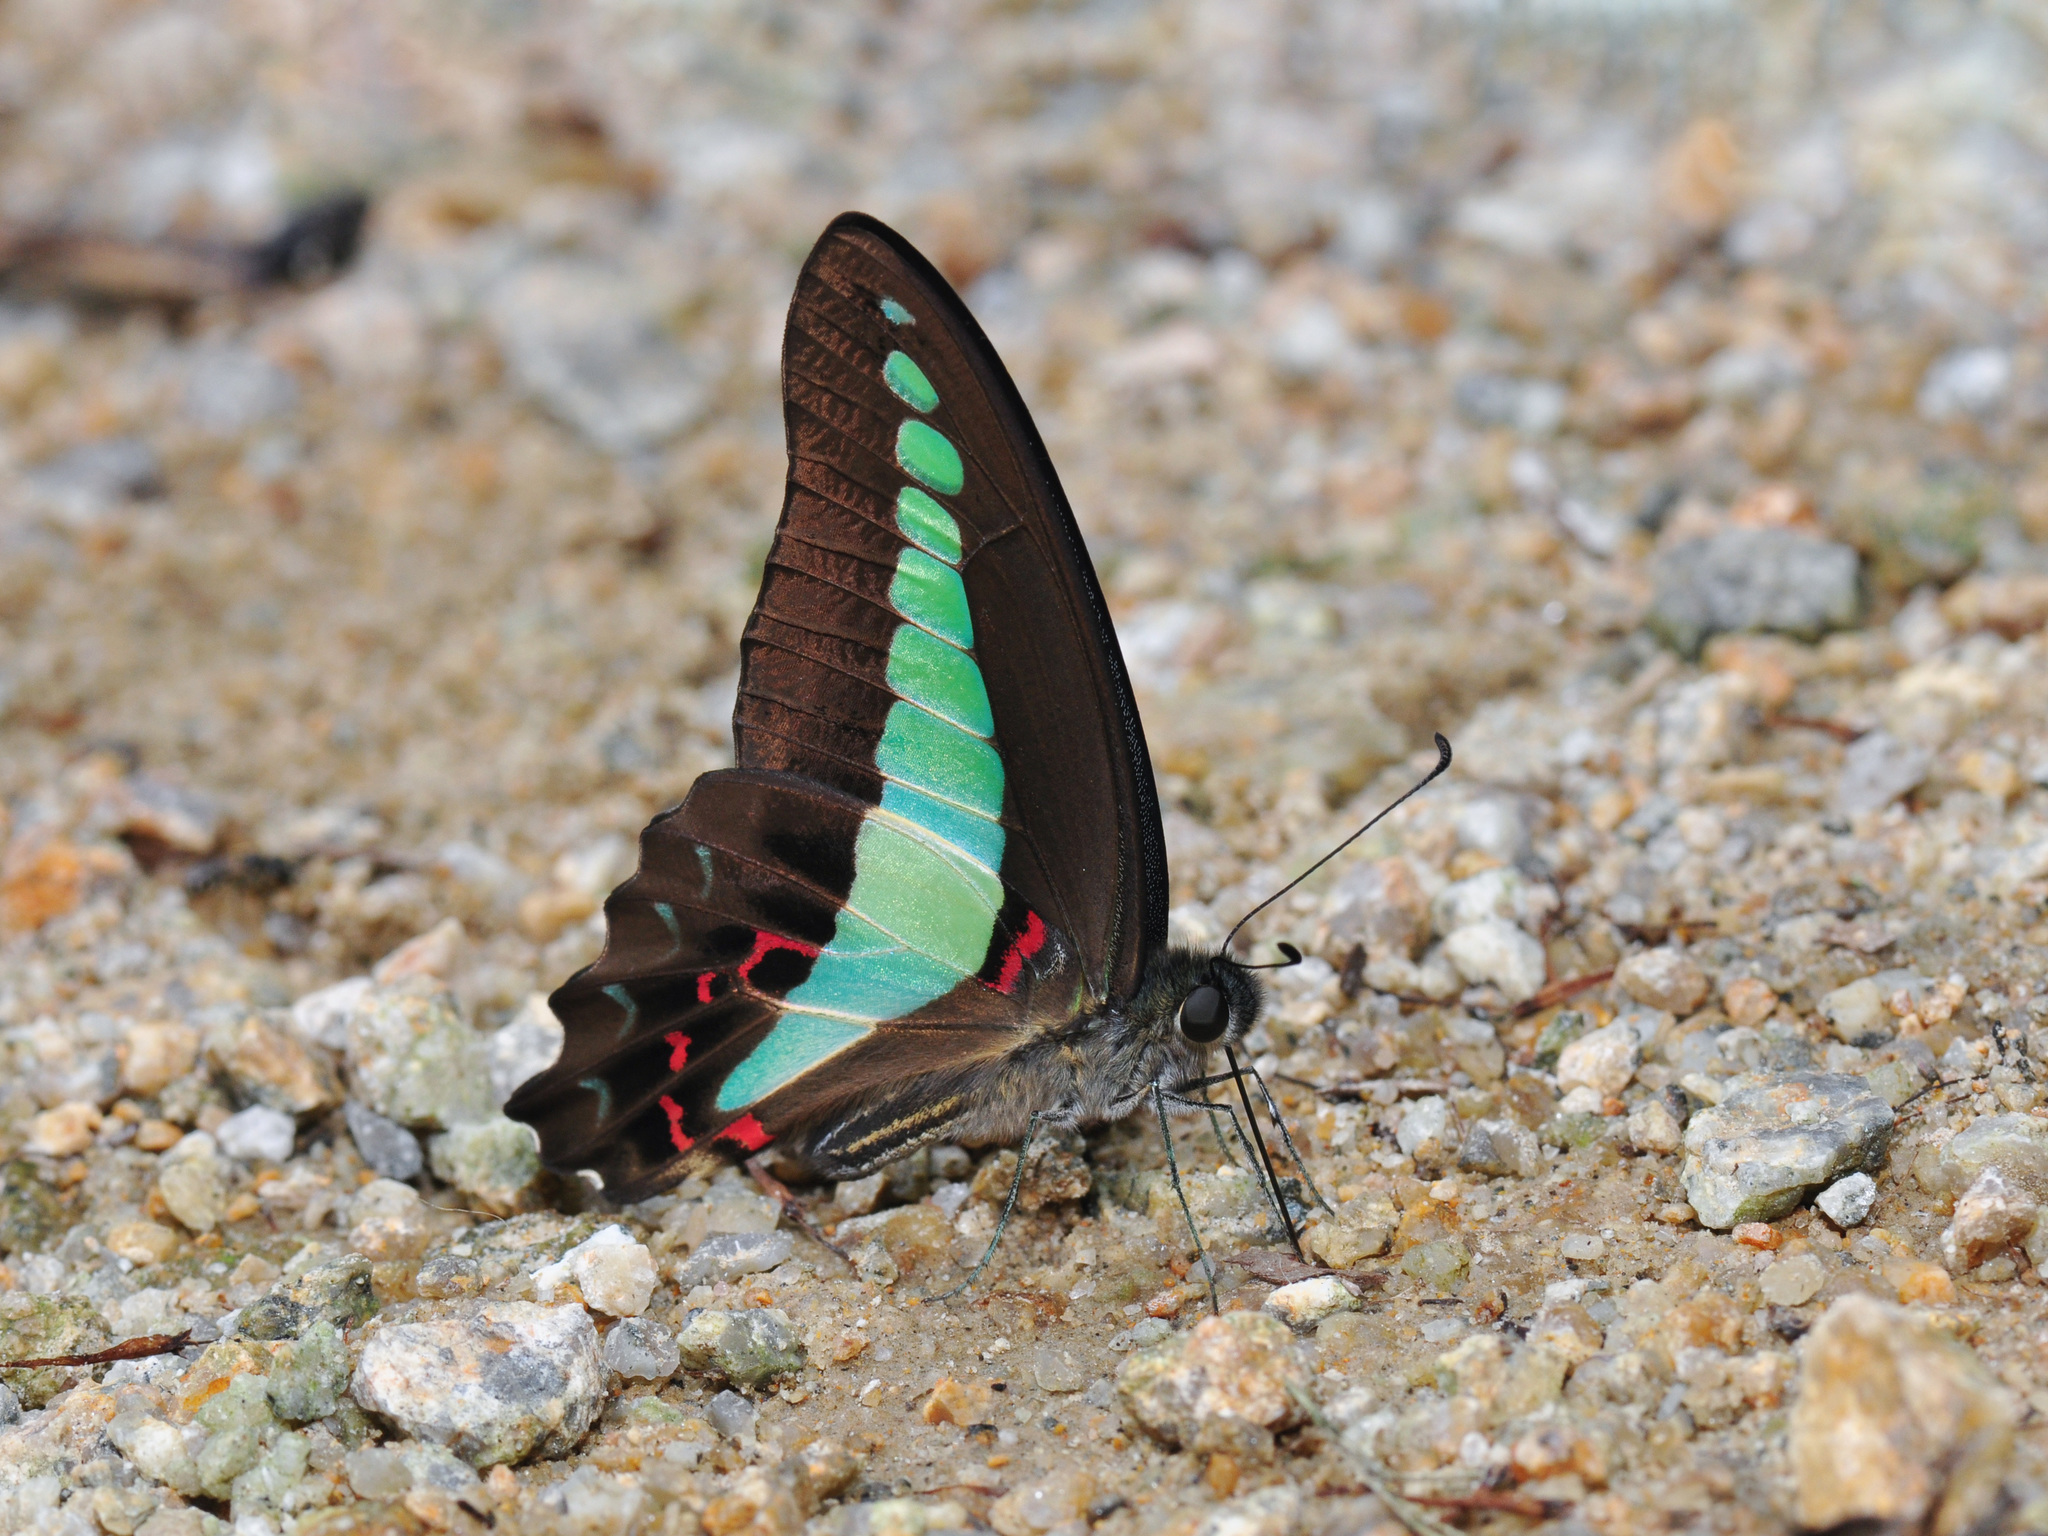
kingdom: Fungi
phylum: Ascomycota
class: Sordariomycetes
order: Microascales
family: Microascaceae
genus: Graphium
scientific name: Graphium sarpedon
